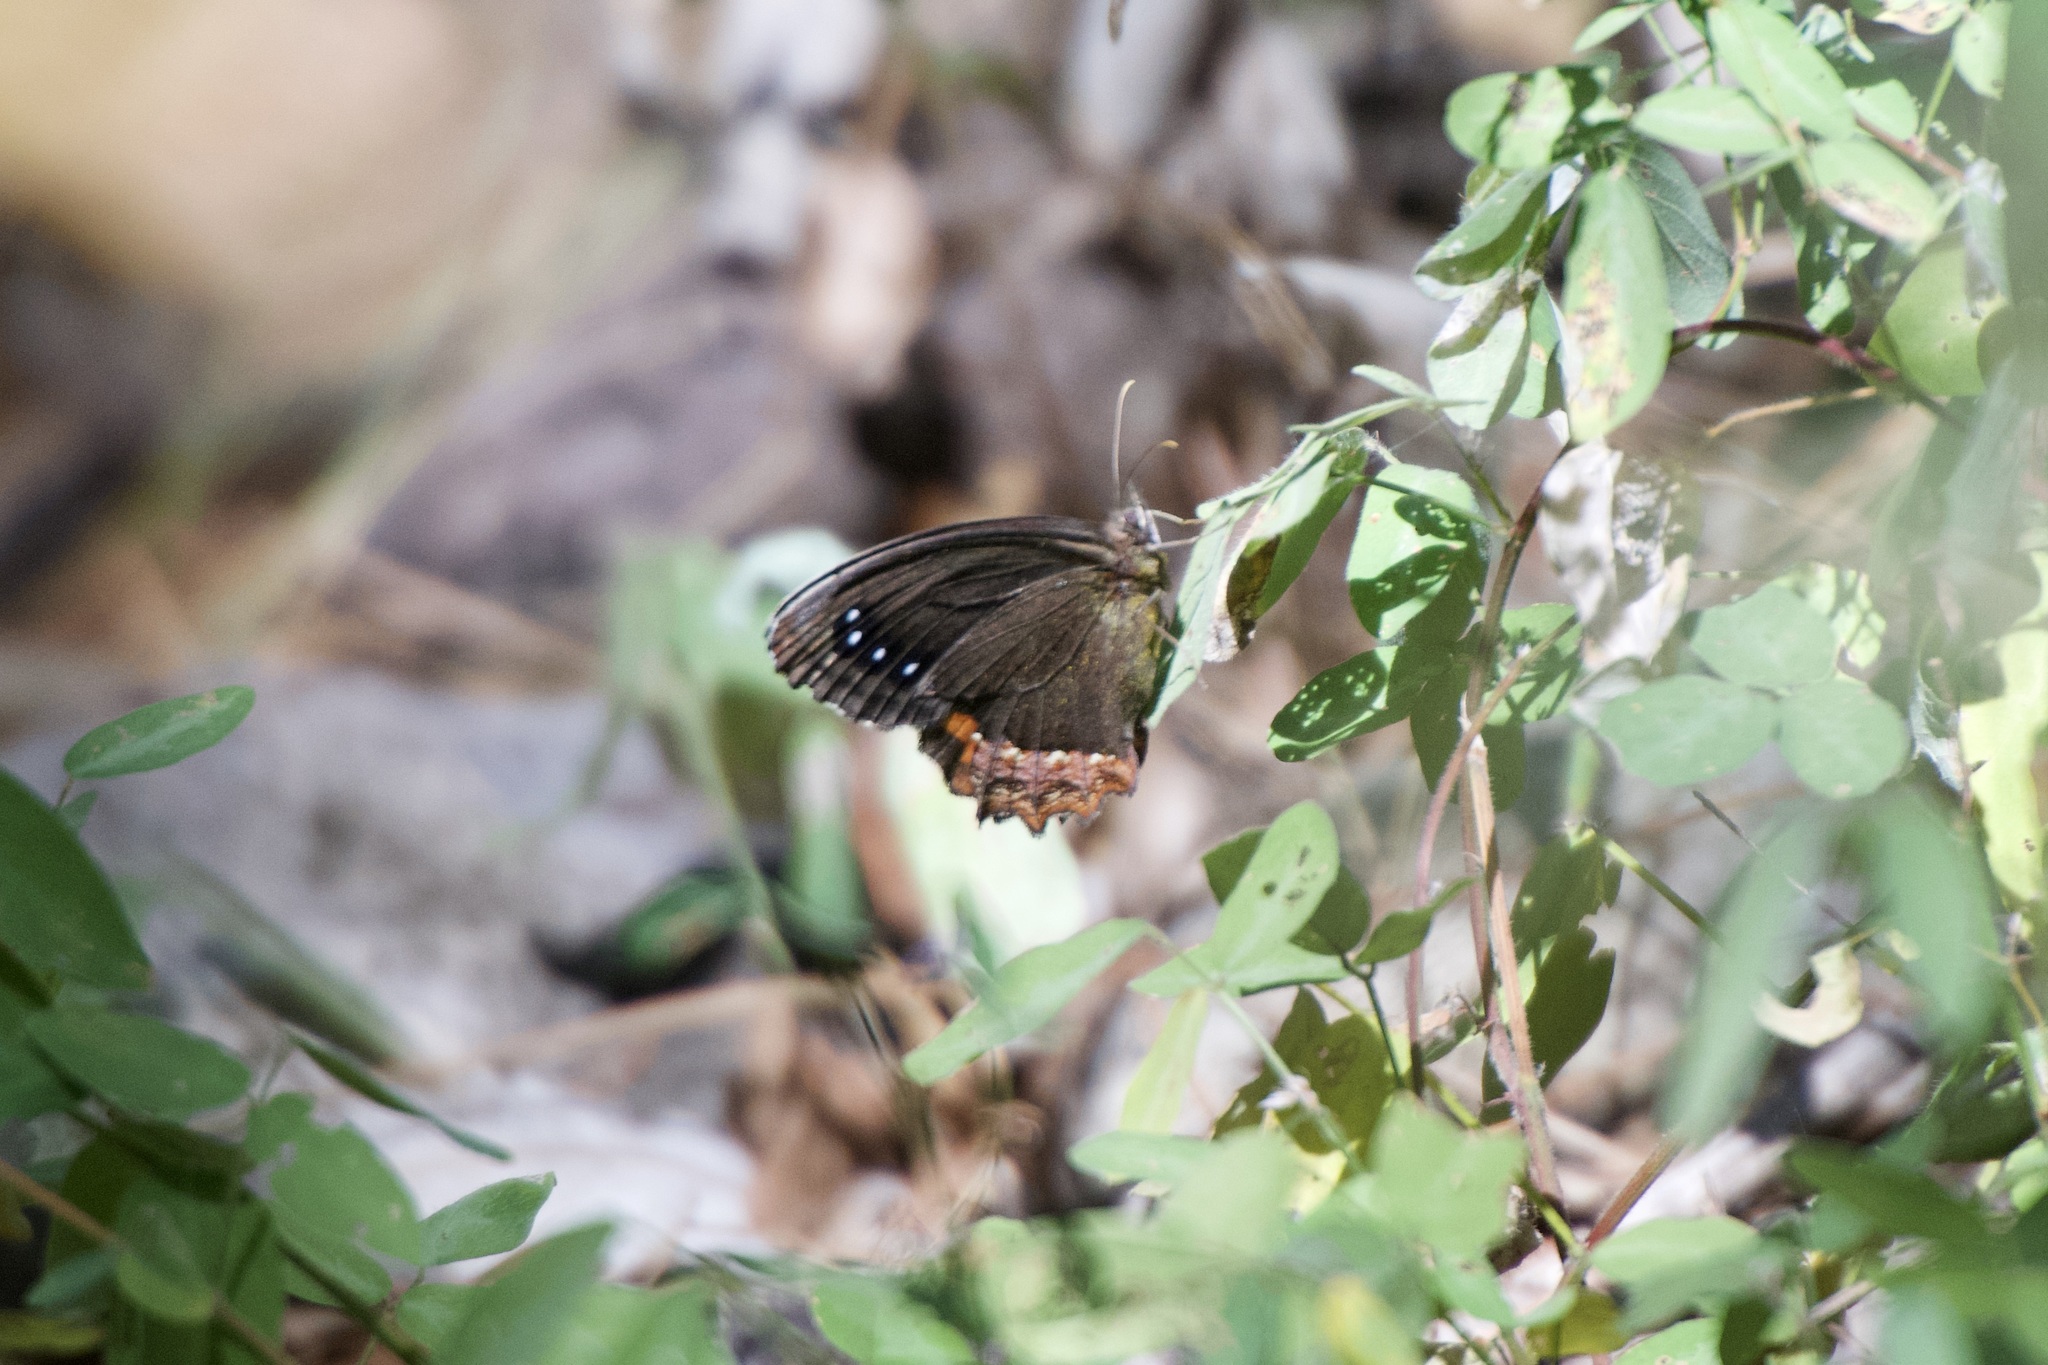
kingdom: Animalia
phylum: Arthropoda
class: Insecta
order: Lepidoptera
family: Nymphalidae
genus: Gyrocheilus
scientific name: Gyrocheilus patrobas
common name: Red-bordered satyr
